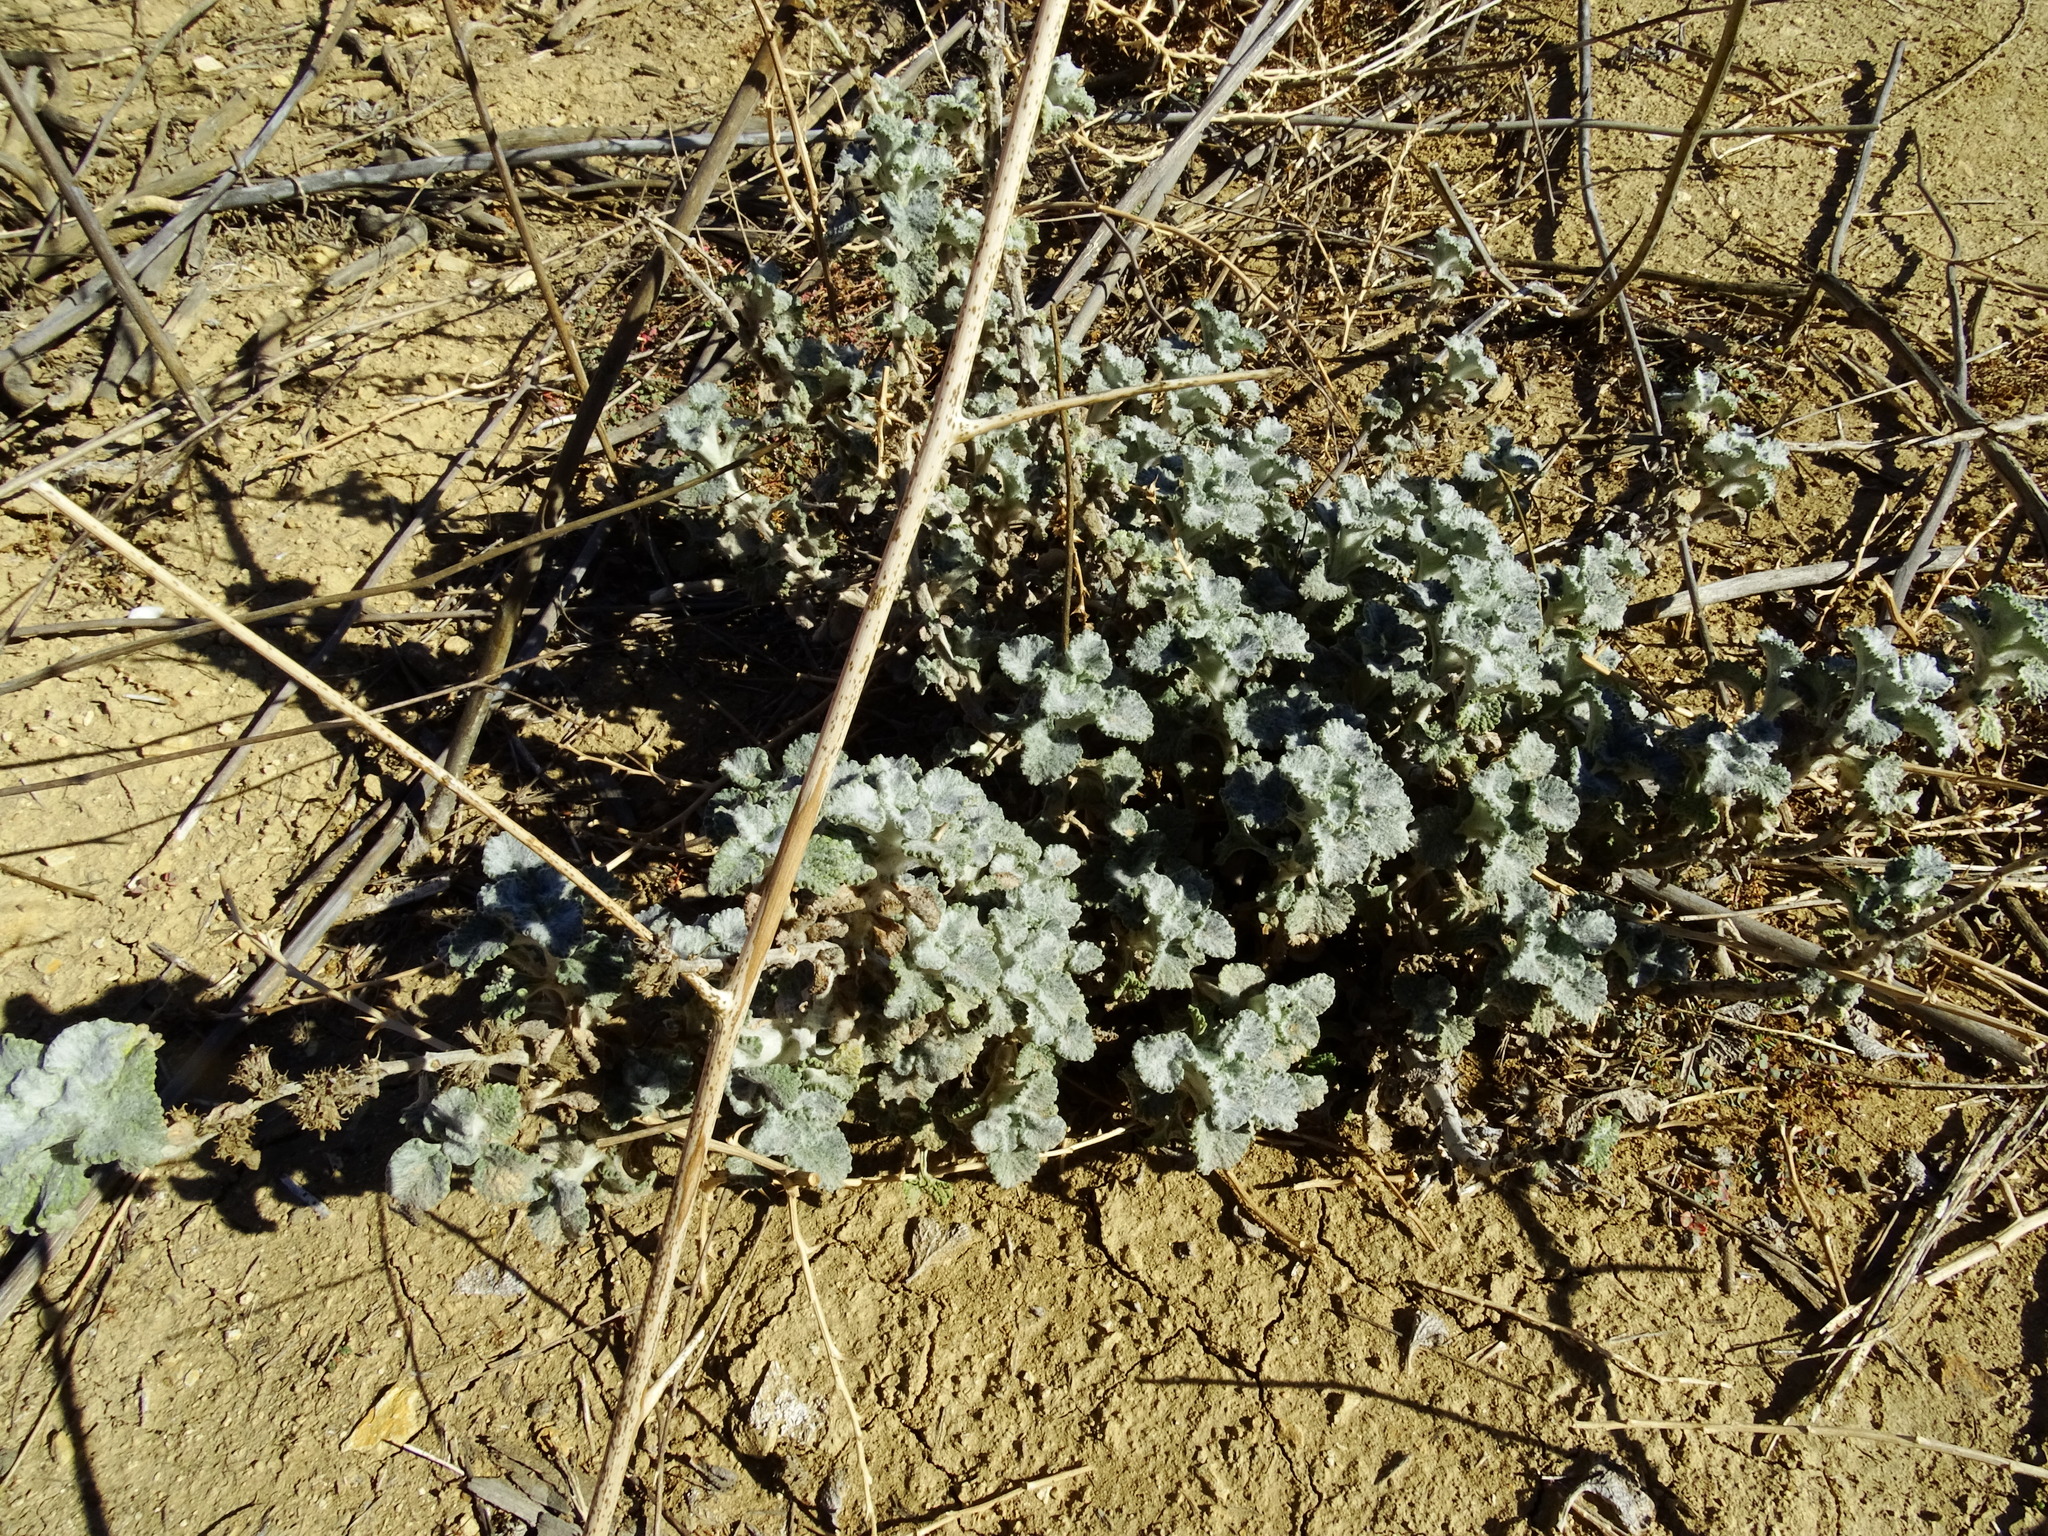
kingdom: Plantae
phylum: Tracheophyta
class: Magnoliopsida
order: Lamiales
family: Lamiaceae
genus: Marrubium
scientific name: Marrubium vulgare
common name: Horehound
